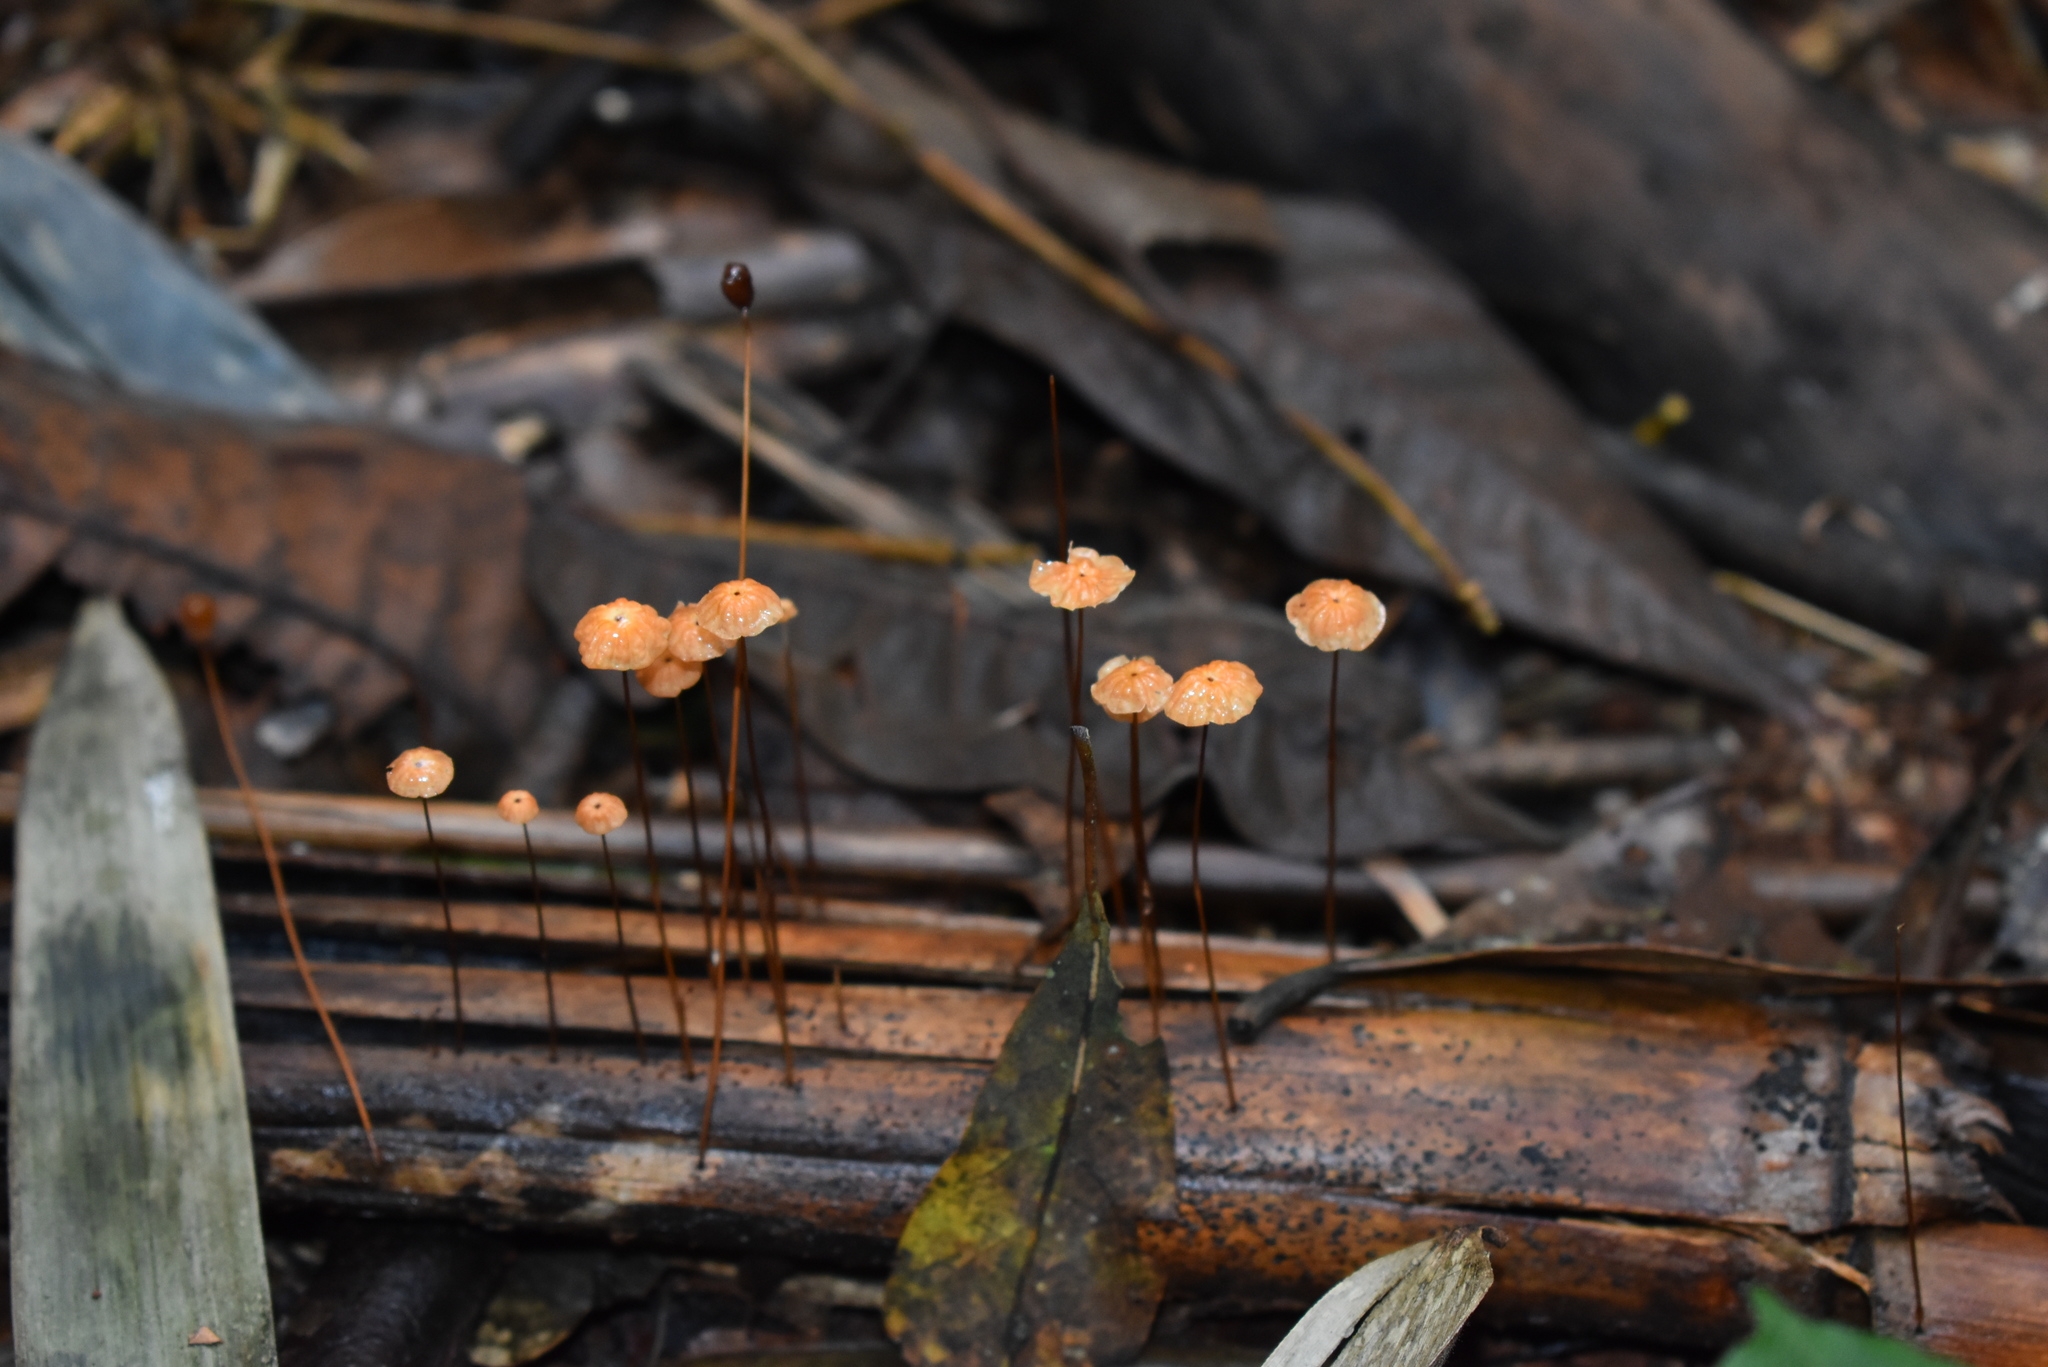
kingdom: Fungi
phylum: Basidiomycota
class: Agaricomycetes
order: Agaricales
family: Marasmiaceae
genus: Marasmius
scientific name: Marasmius siccus
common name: Orange pinwheel
